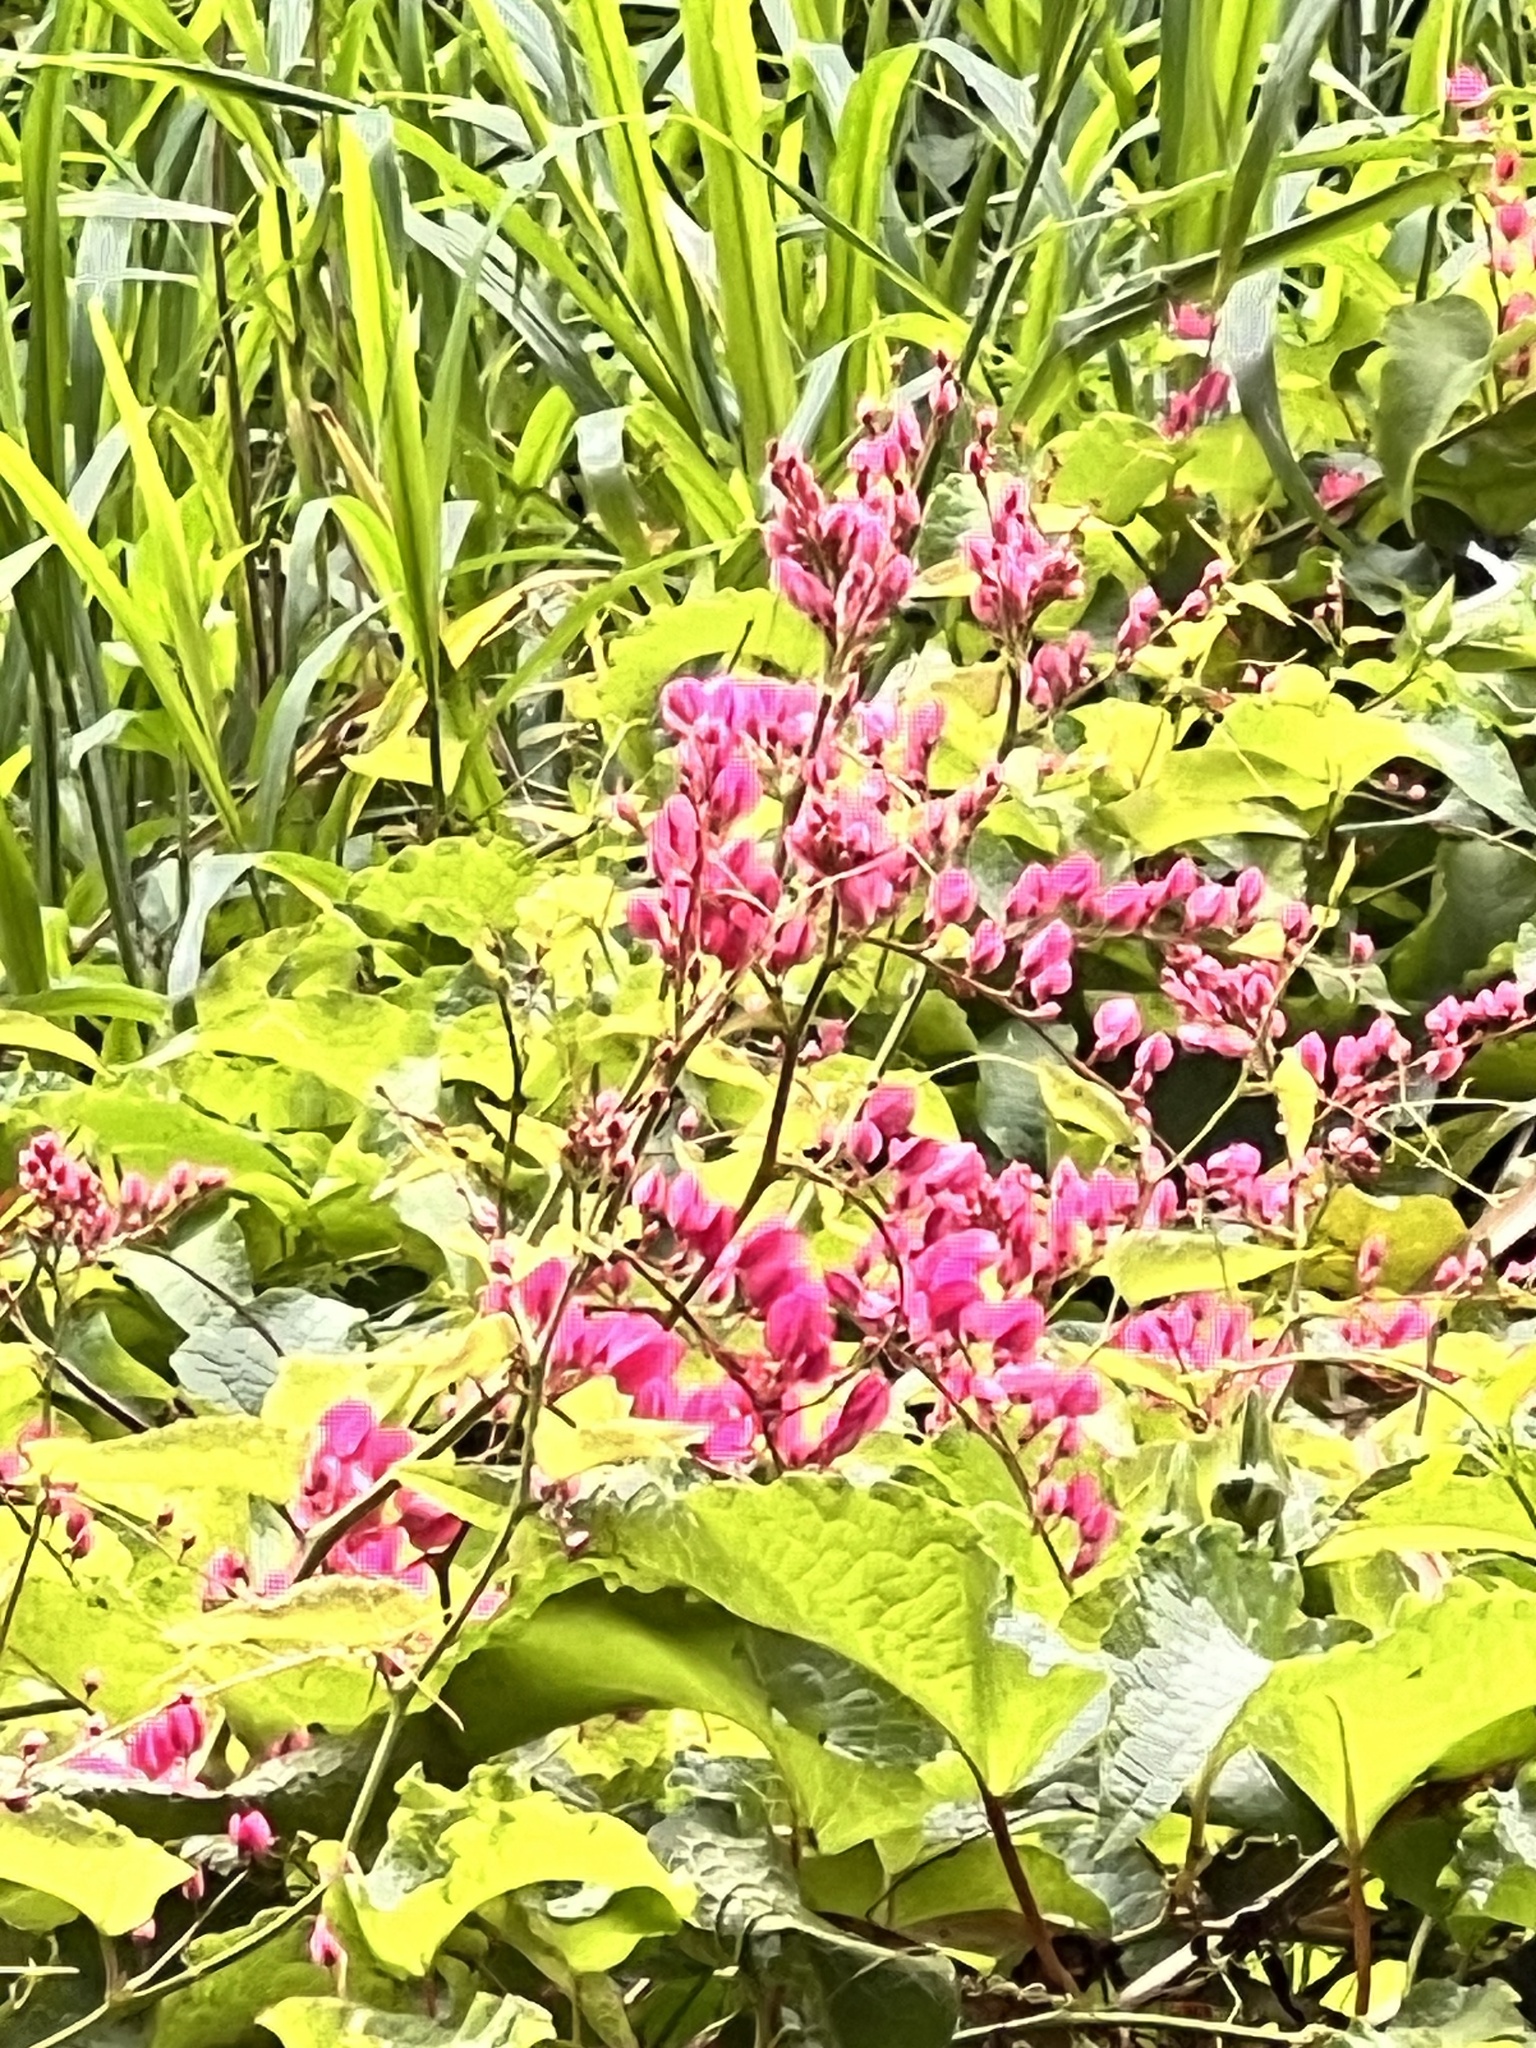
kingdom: Plantae
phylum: Tracheophyta
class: Magnoliopsida
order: Caryophyllales
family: Polygonaceae
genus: Antigonon
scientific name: Antigonon leptopus
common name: Coral vine
